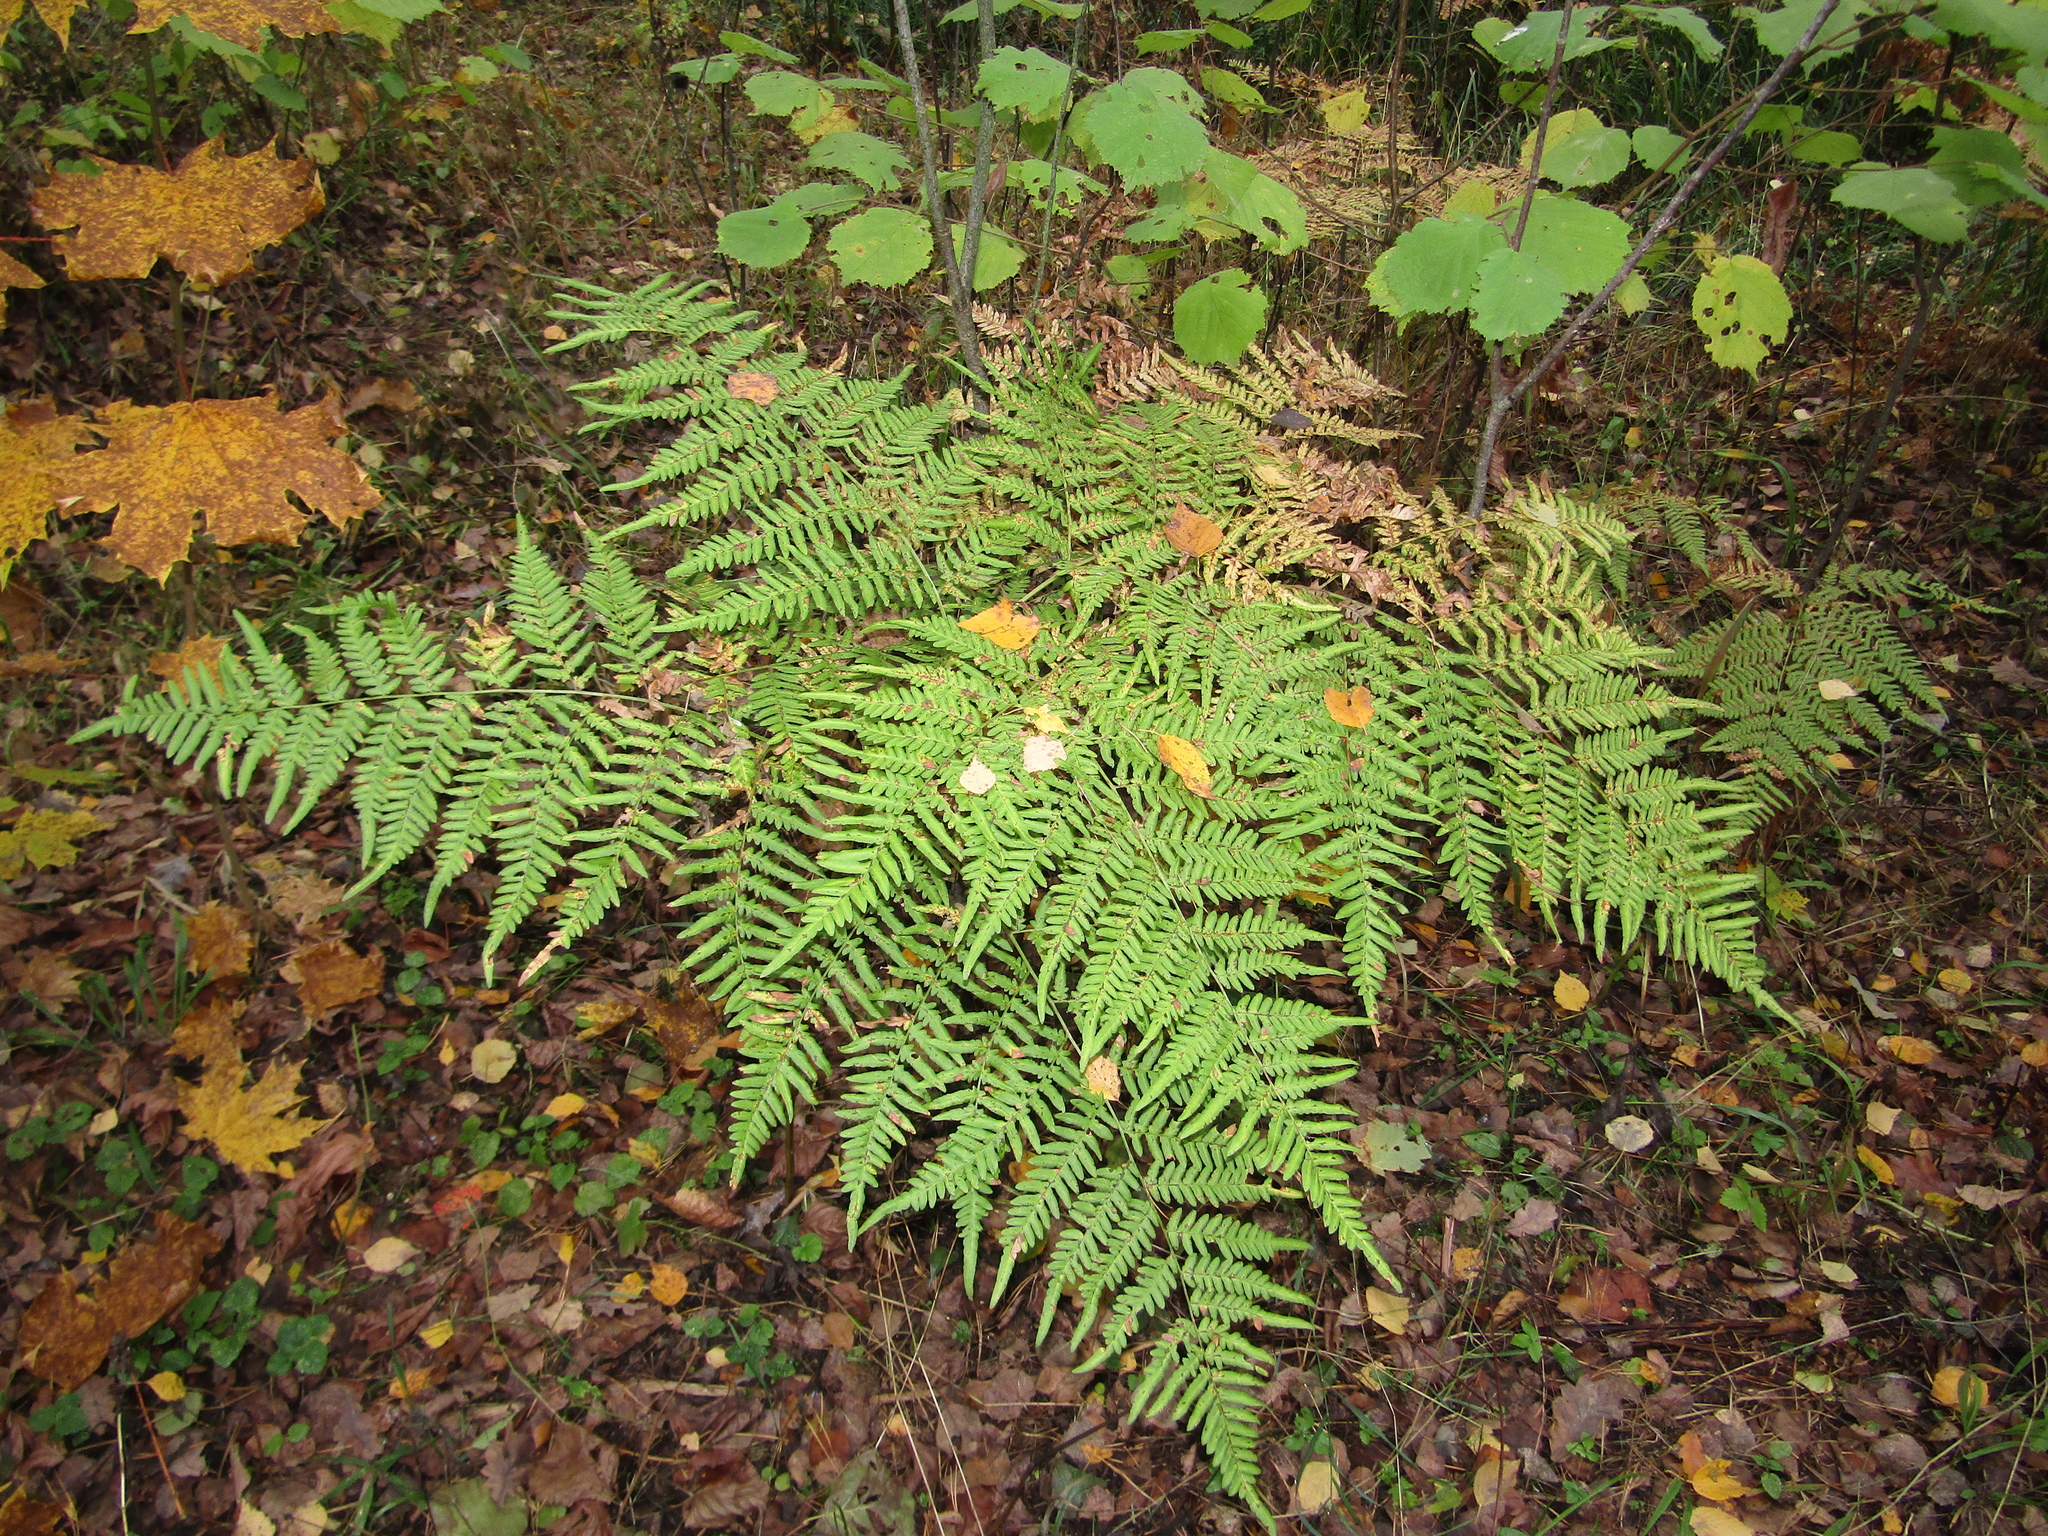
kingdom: Plantae
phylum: Tracheophyta
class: Polypodiopsida
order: Polypodiales
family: Dennstaedtiaceae
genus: Pteridium
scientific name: Pteridium aquilinum
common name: Bracken
